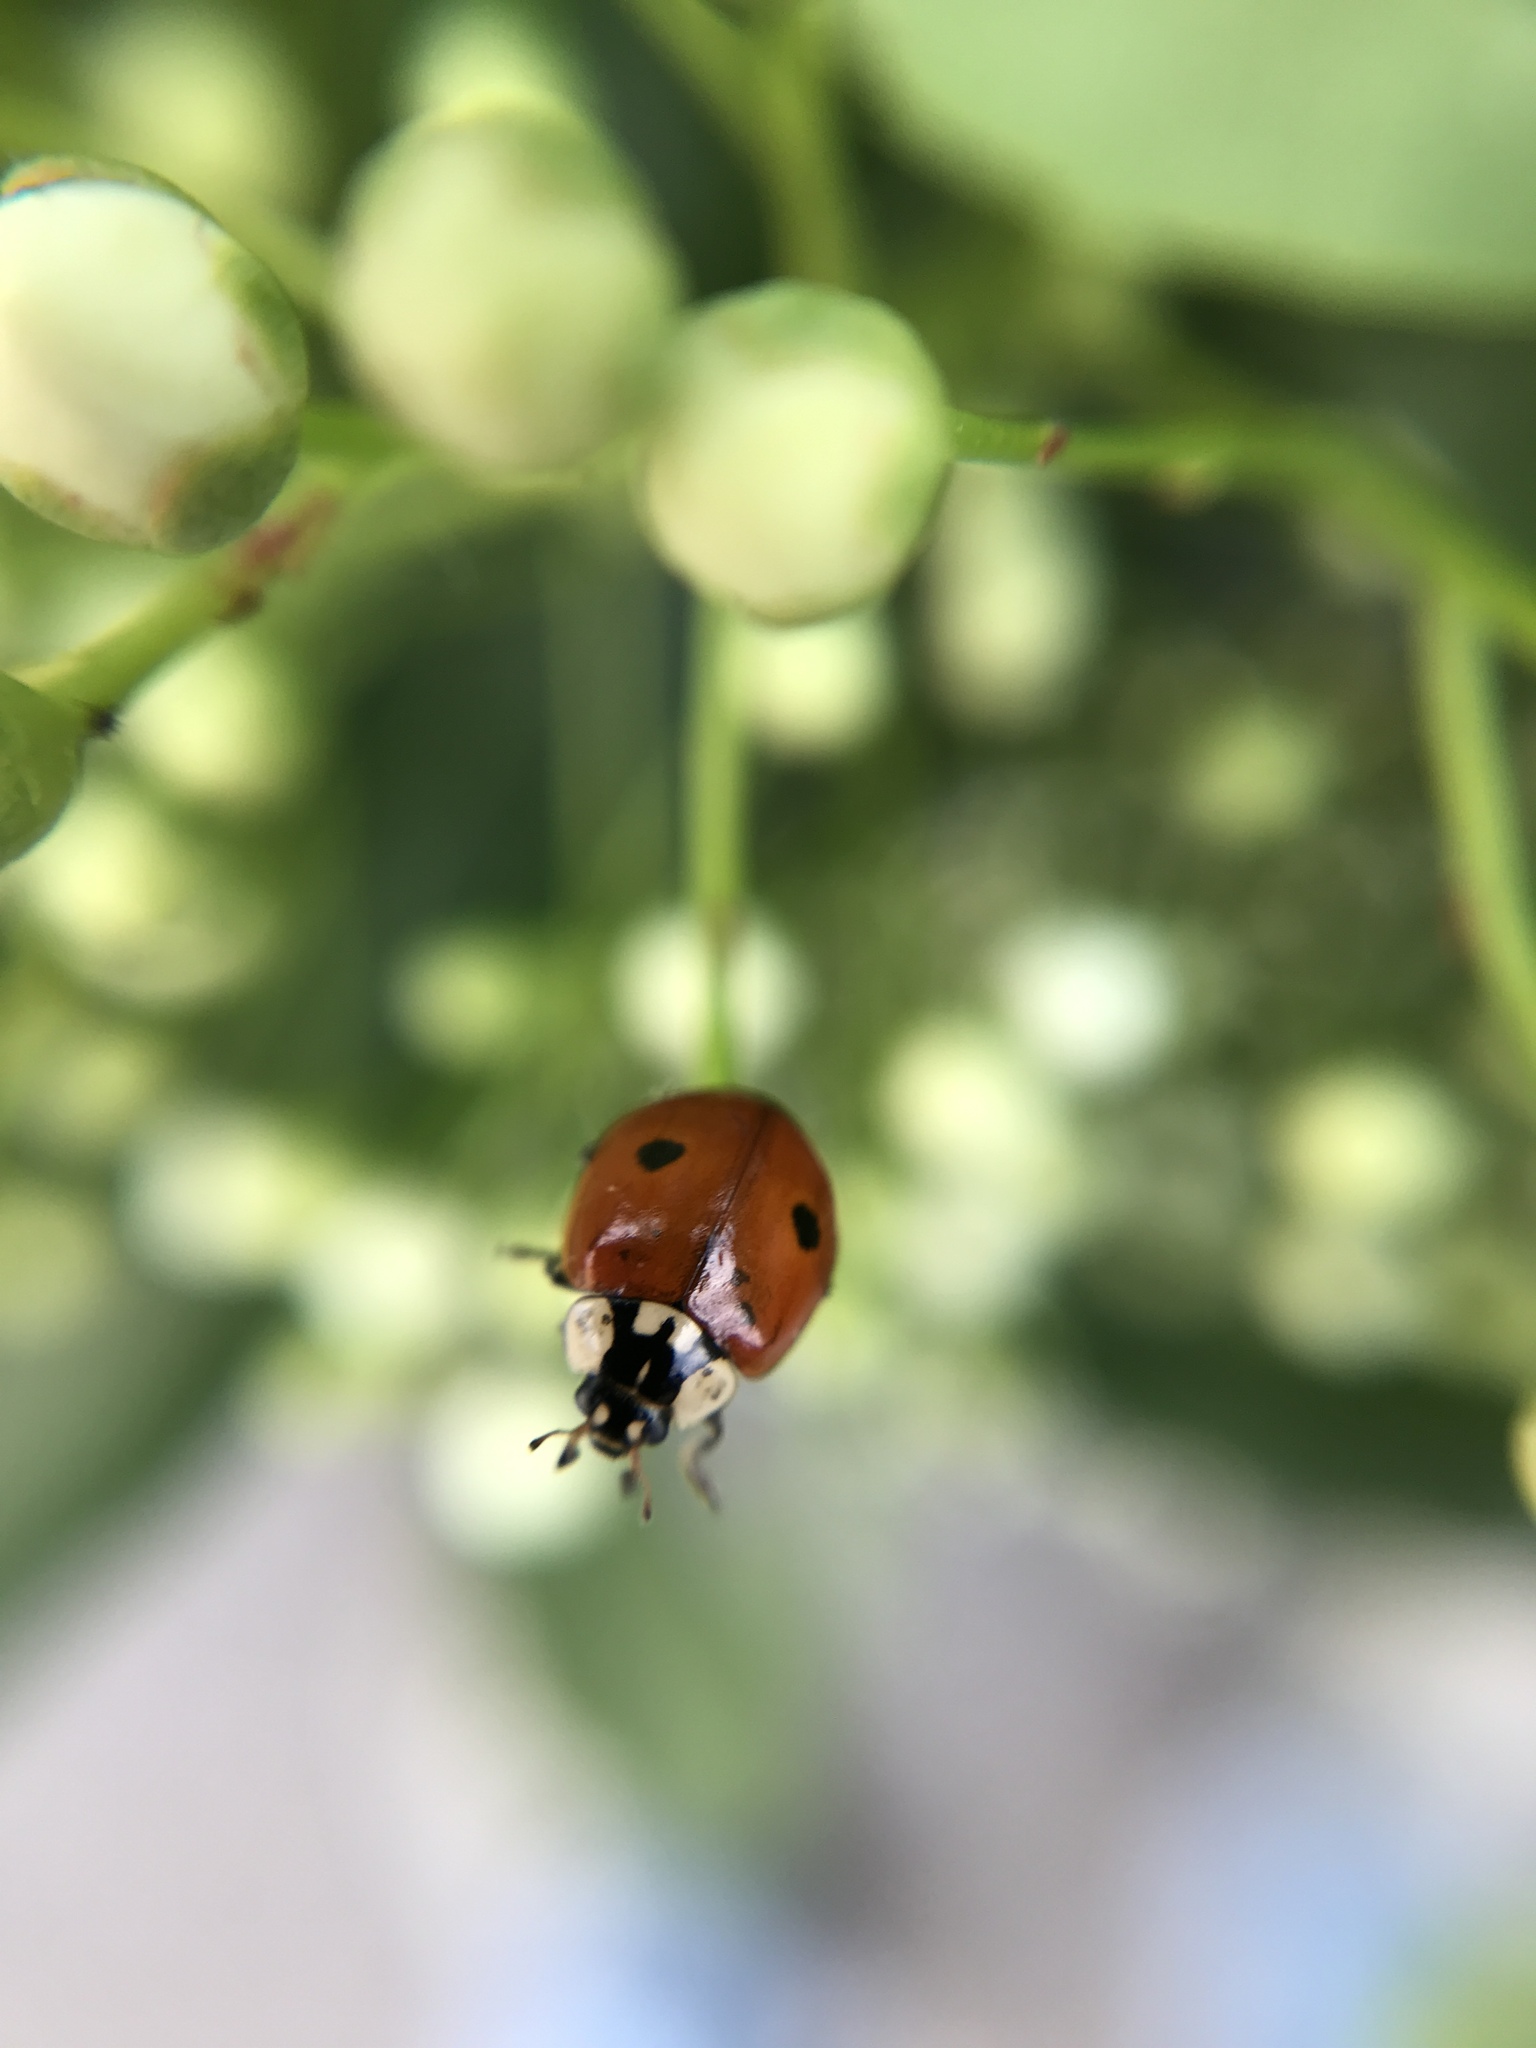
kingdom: Animalia
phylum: Arthropoda
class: Insecta
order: Coleoptera
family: Coccinellidae
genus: Adalia
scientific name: Adalia bipunctata
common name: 2-spot ladybird
